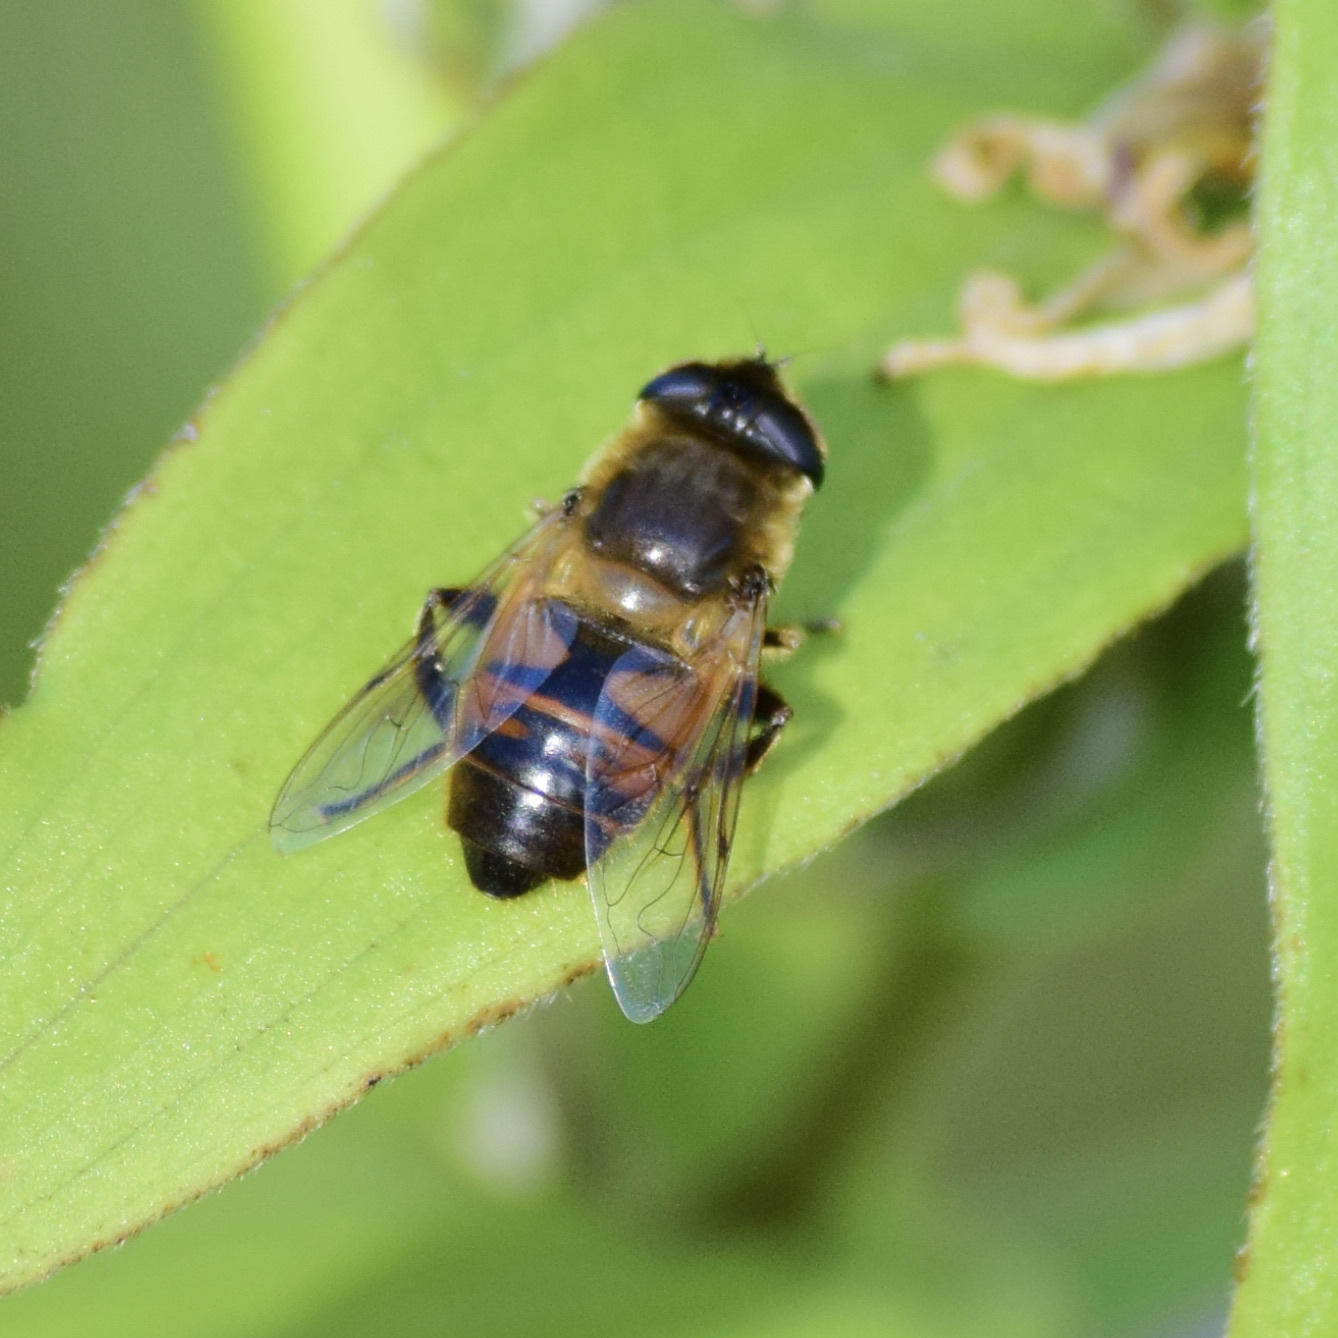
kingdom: Animalia
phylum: Arthropoda
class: Insecta
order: Diptera
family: Syrphidae
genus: Eristalis
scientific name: Eristalis tenax
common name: Drone fly
